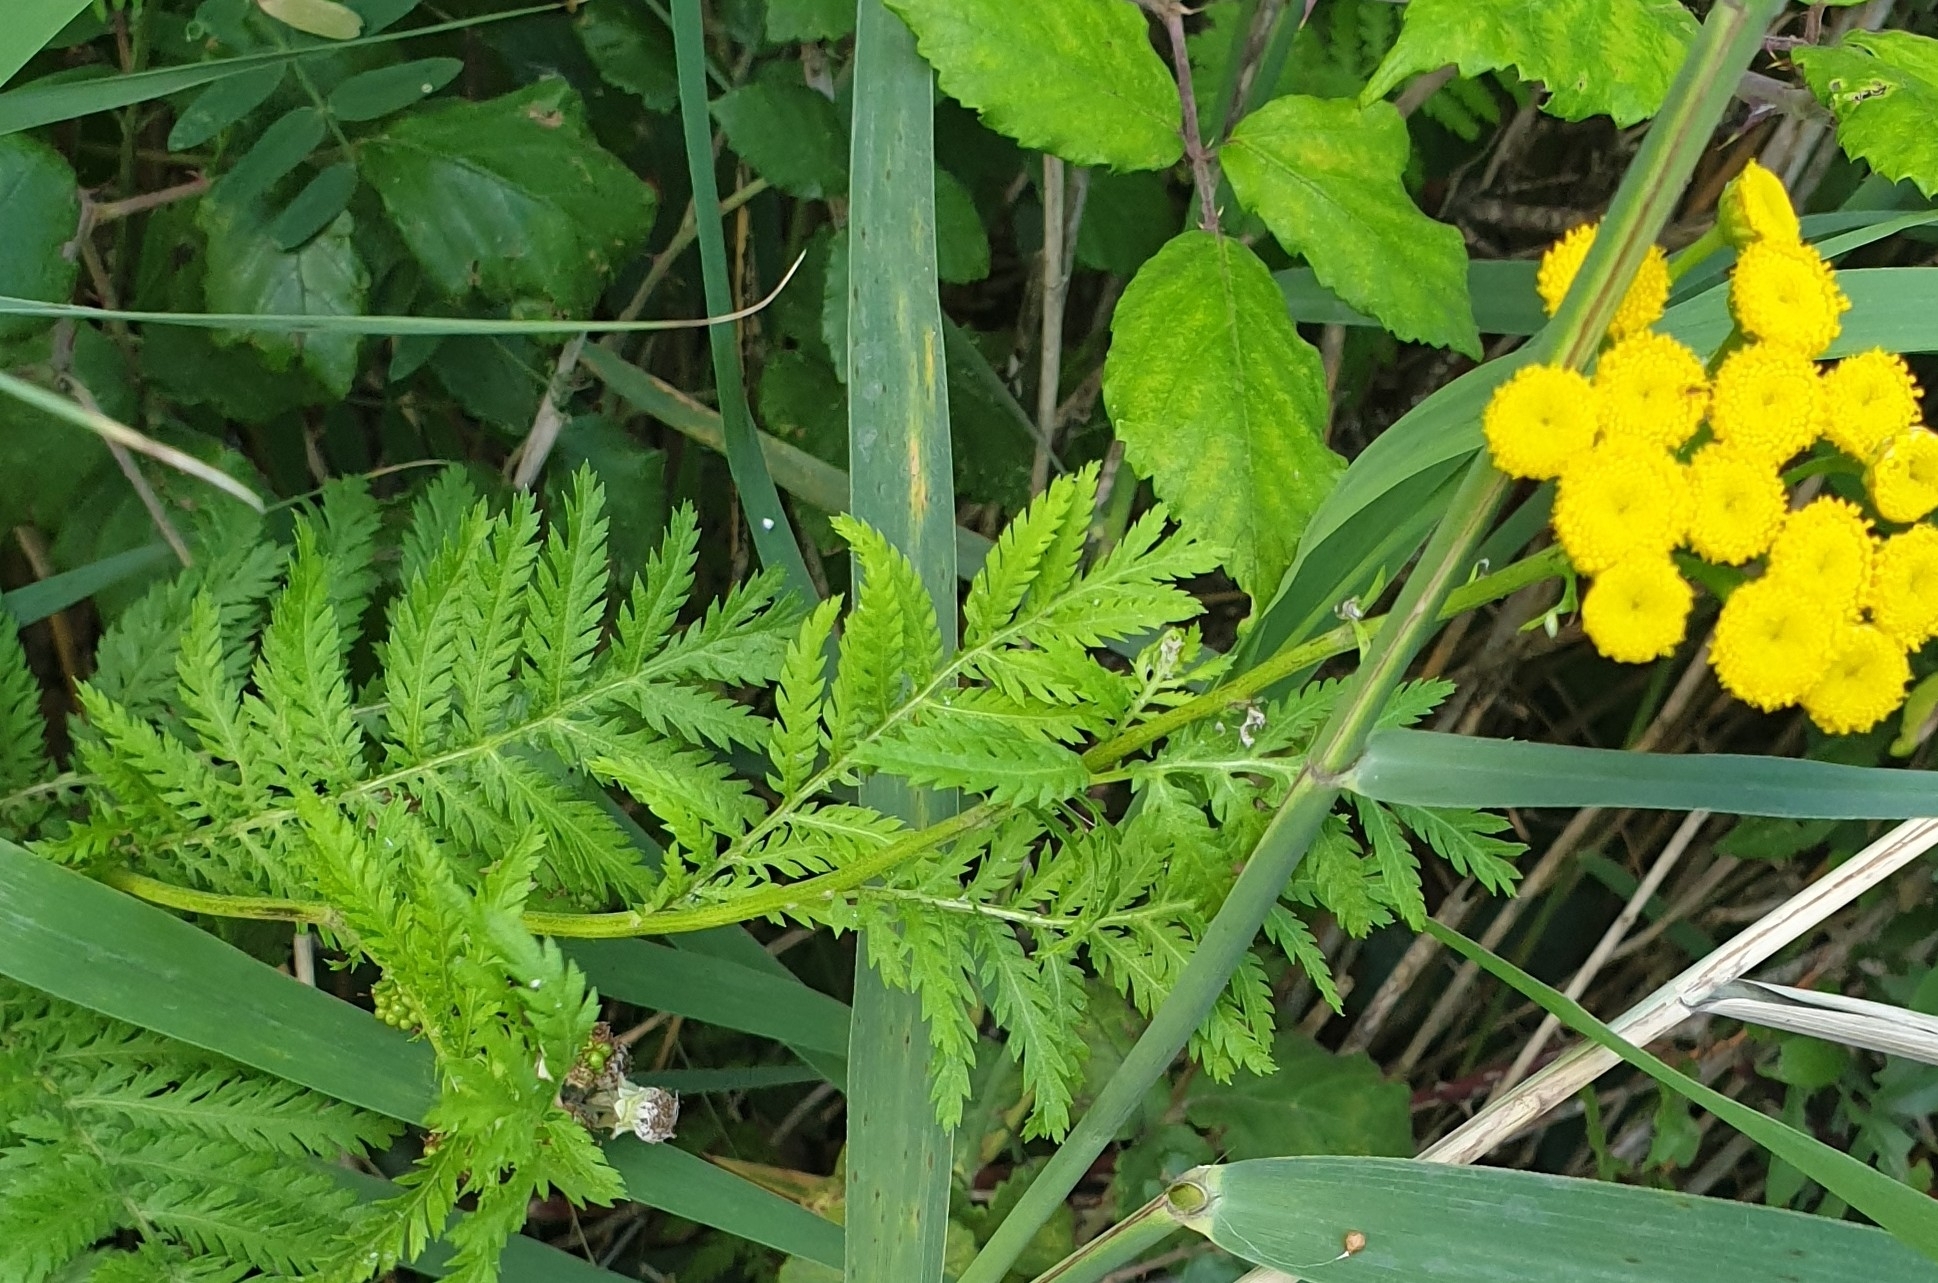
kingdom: Plantae
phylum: Tracheophyta
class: Magnoliopsida
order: Asterales
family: Asteraceae
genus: Tanacetum
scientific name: Tanacetum vulgare
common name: Common tansy
